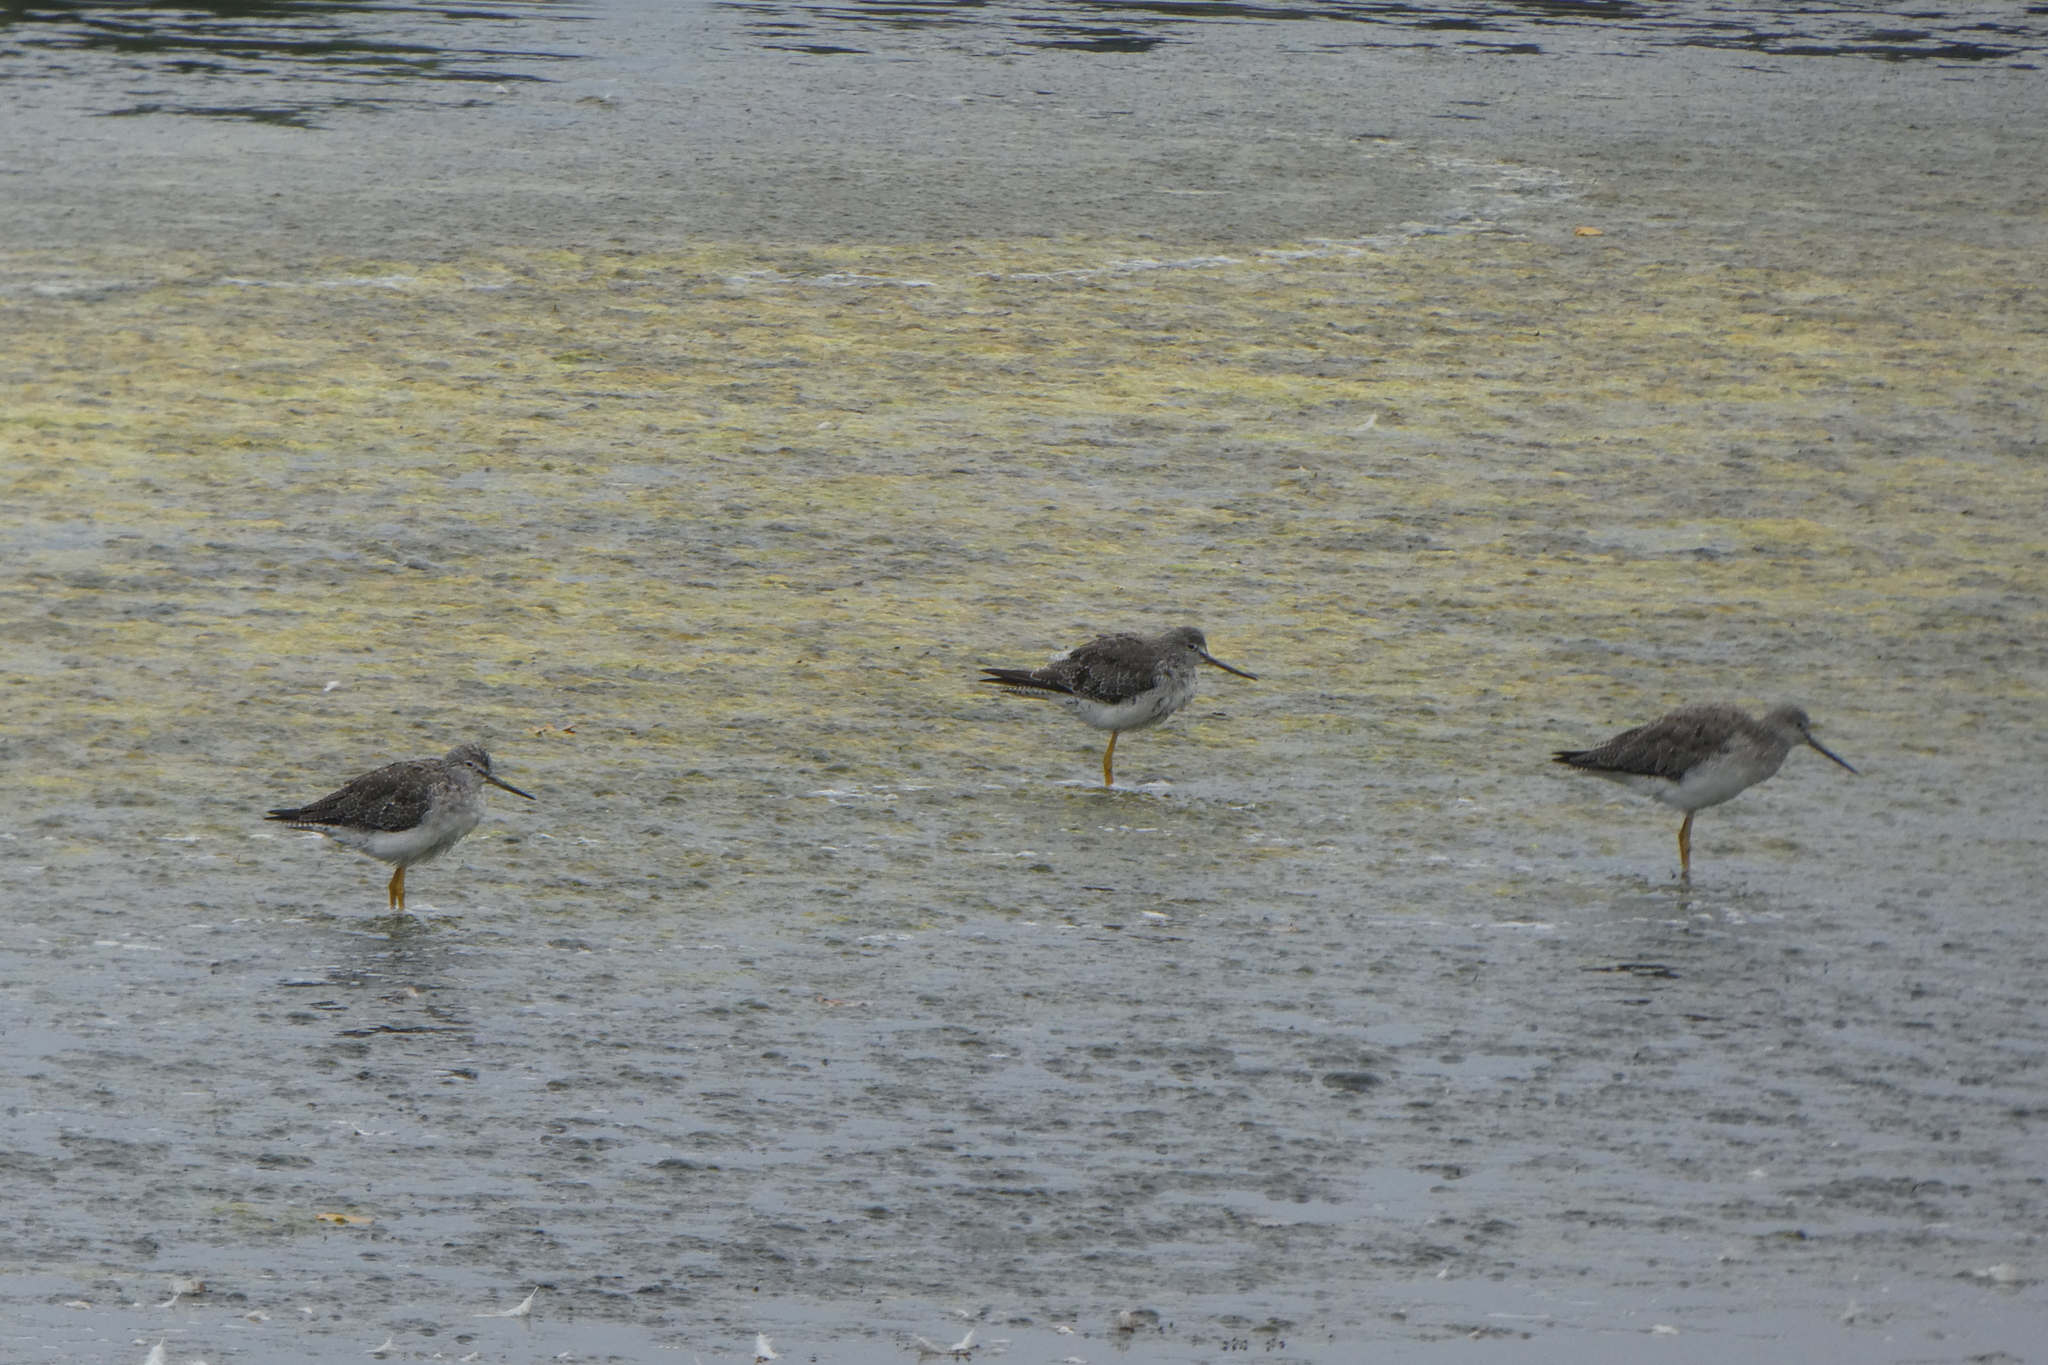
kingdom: Animalia
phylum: Chordata
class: Aves
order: Charadriiformes
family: Scolopacidae
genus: Tringa
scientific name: Tringa melanoleuca
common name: Greater yellowlegs
